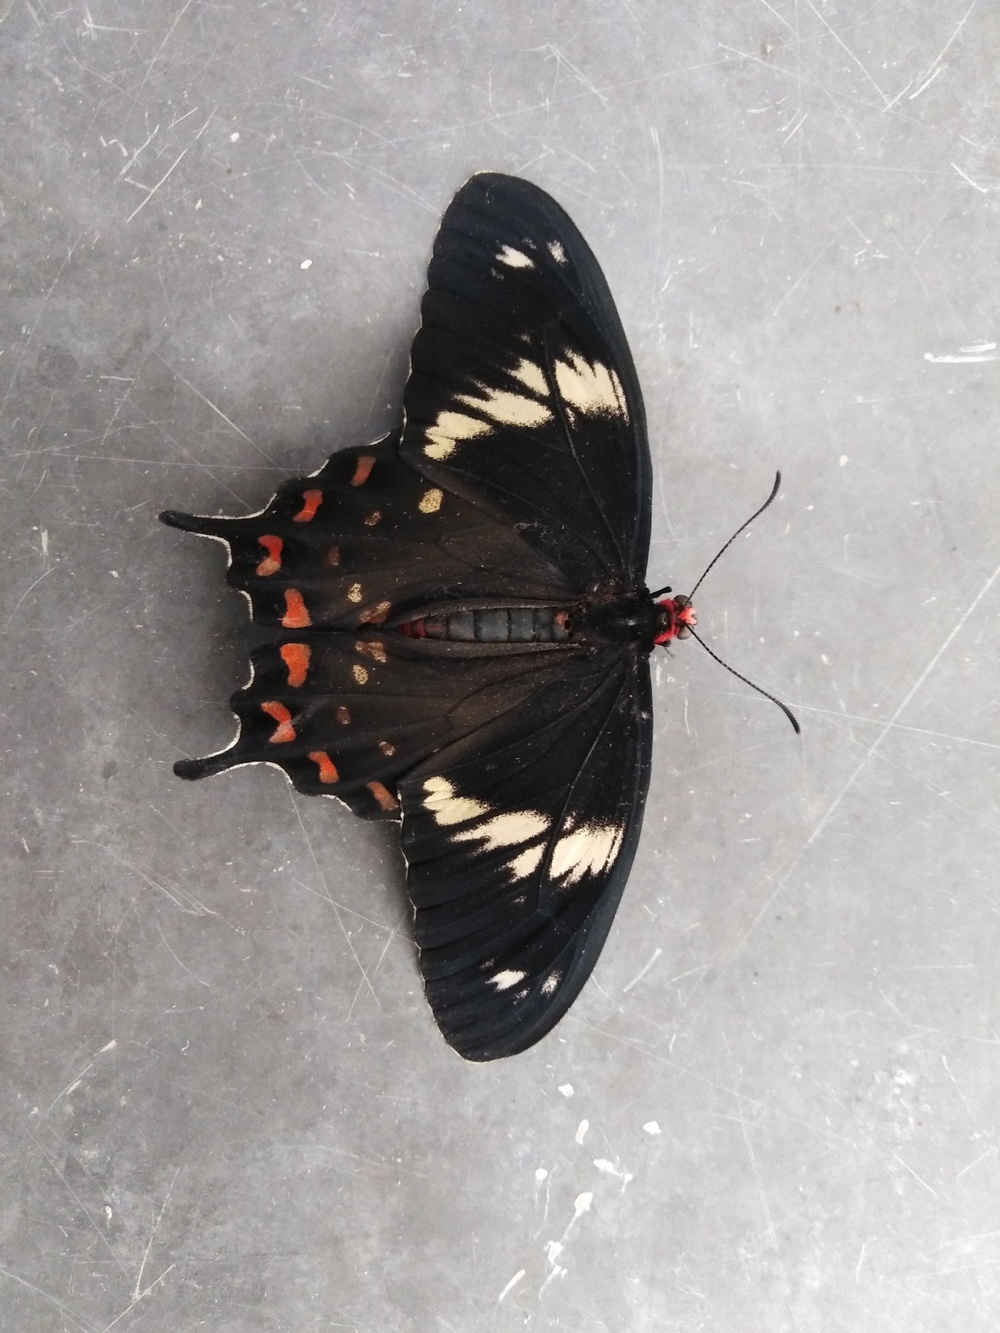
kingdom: Animalia
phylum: Arthropoda
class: Insecta
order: Lepidoptera
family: Papilionidae
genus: Pachliopta
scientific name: Pachliopta hector
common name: Crimson rose
